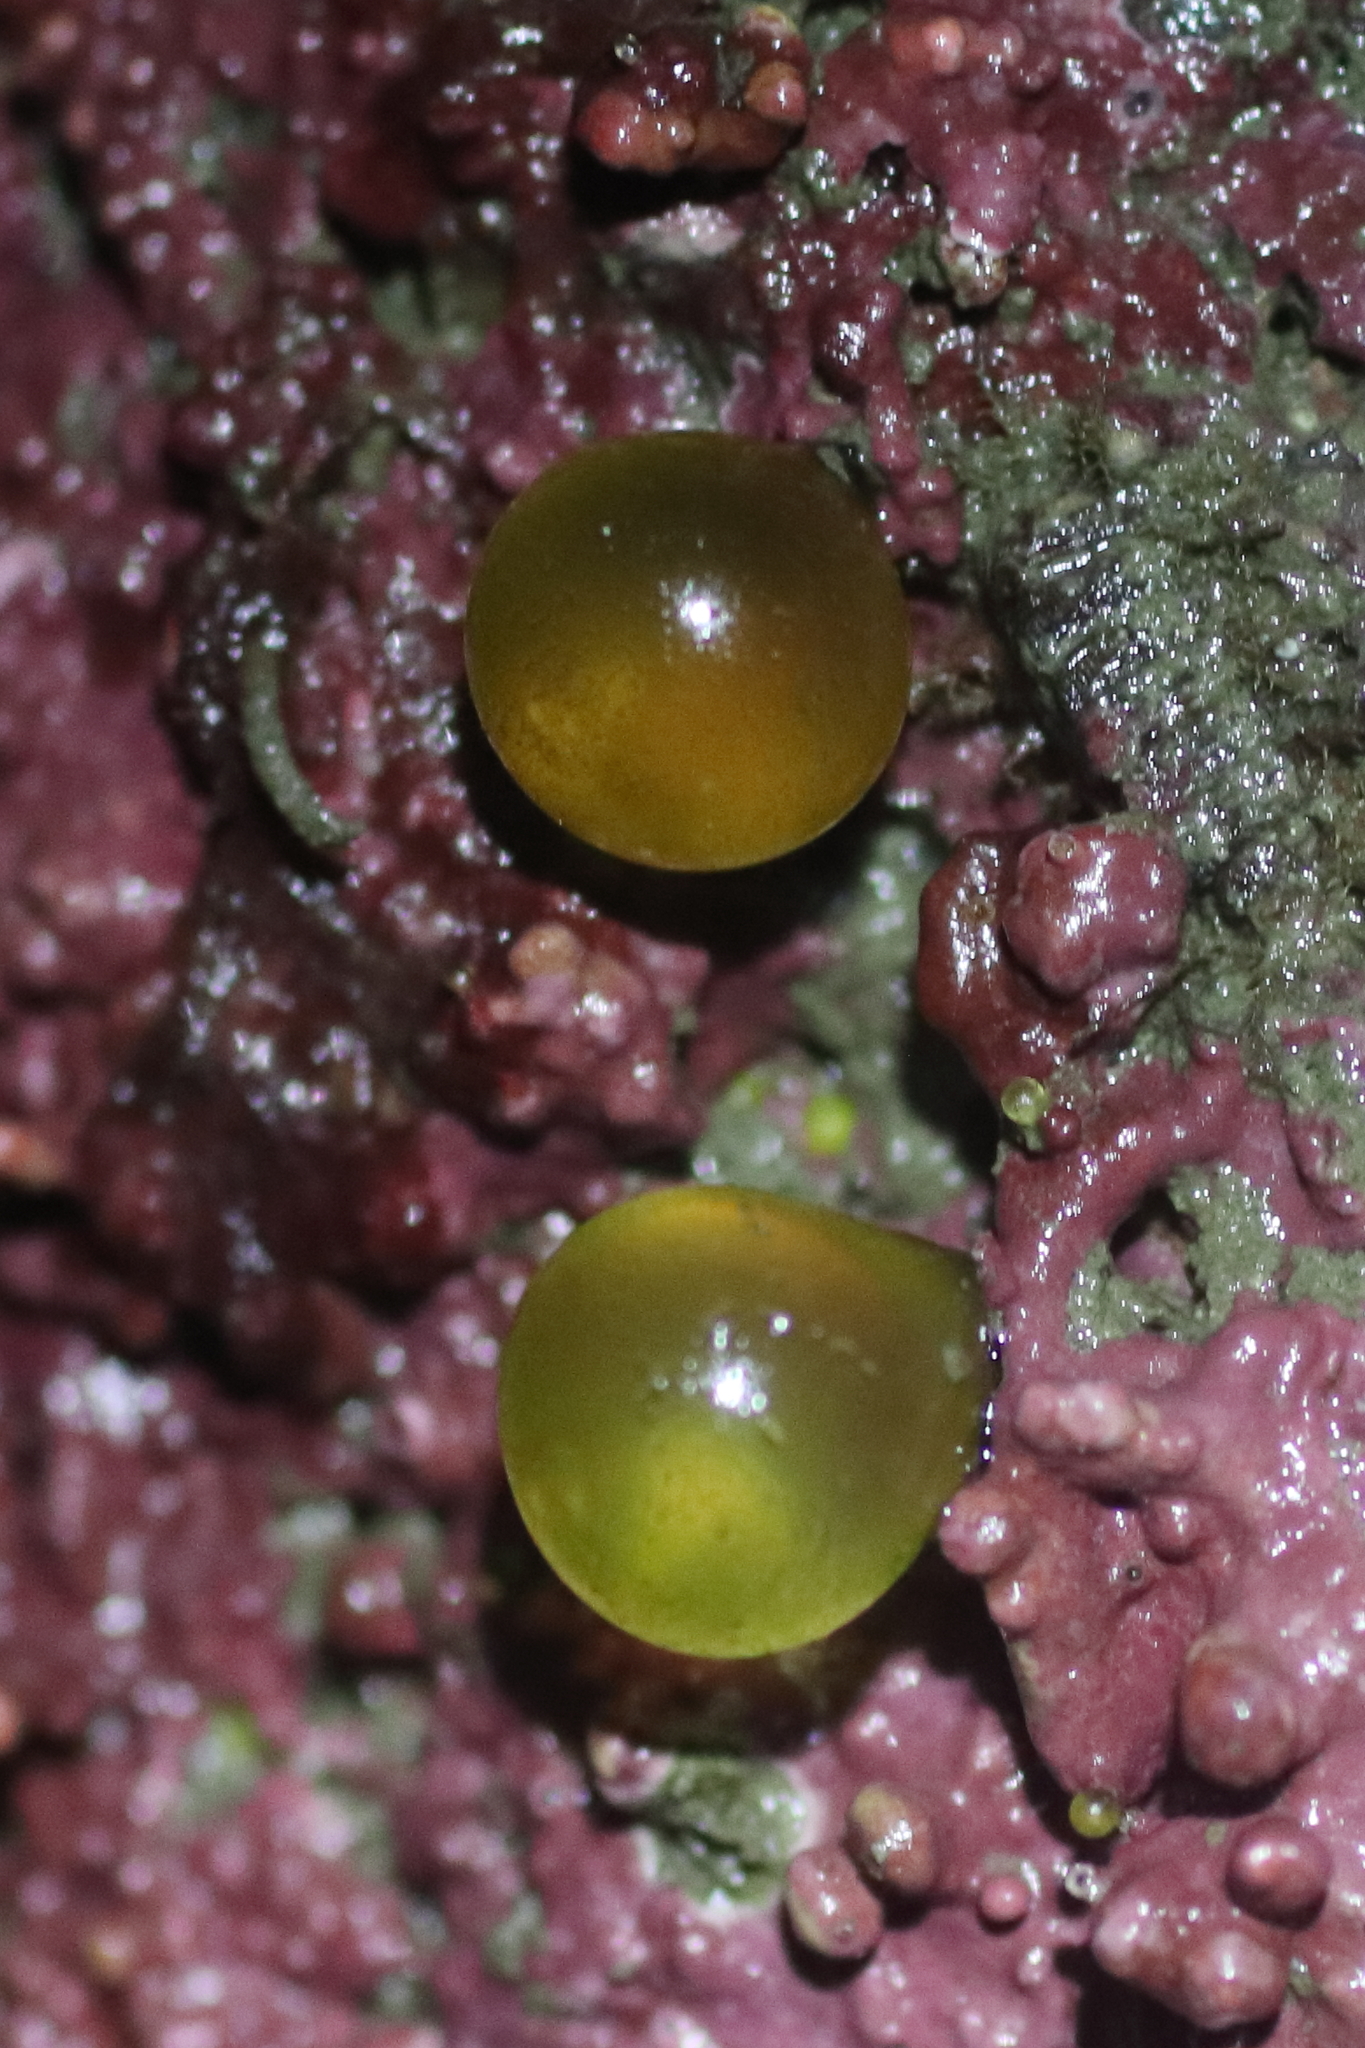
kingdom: Plantae
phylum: Chlorophyta
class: Ulvophyceae
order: Bryopsidales
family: Derbesiaceae
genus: Derbesia
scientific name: Derbesia marina
